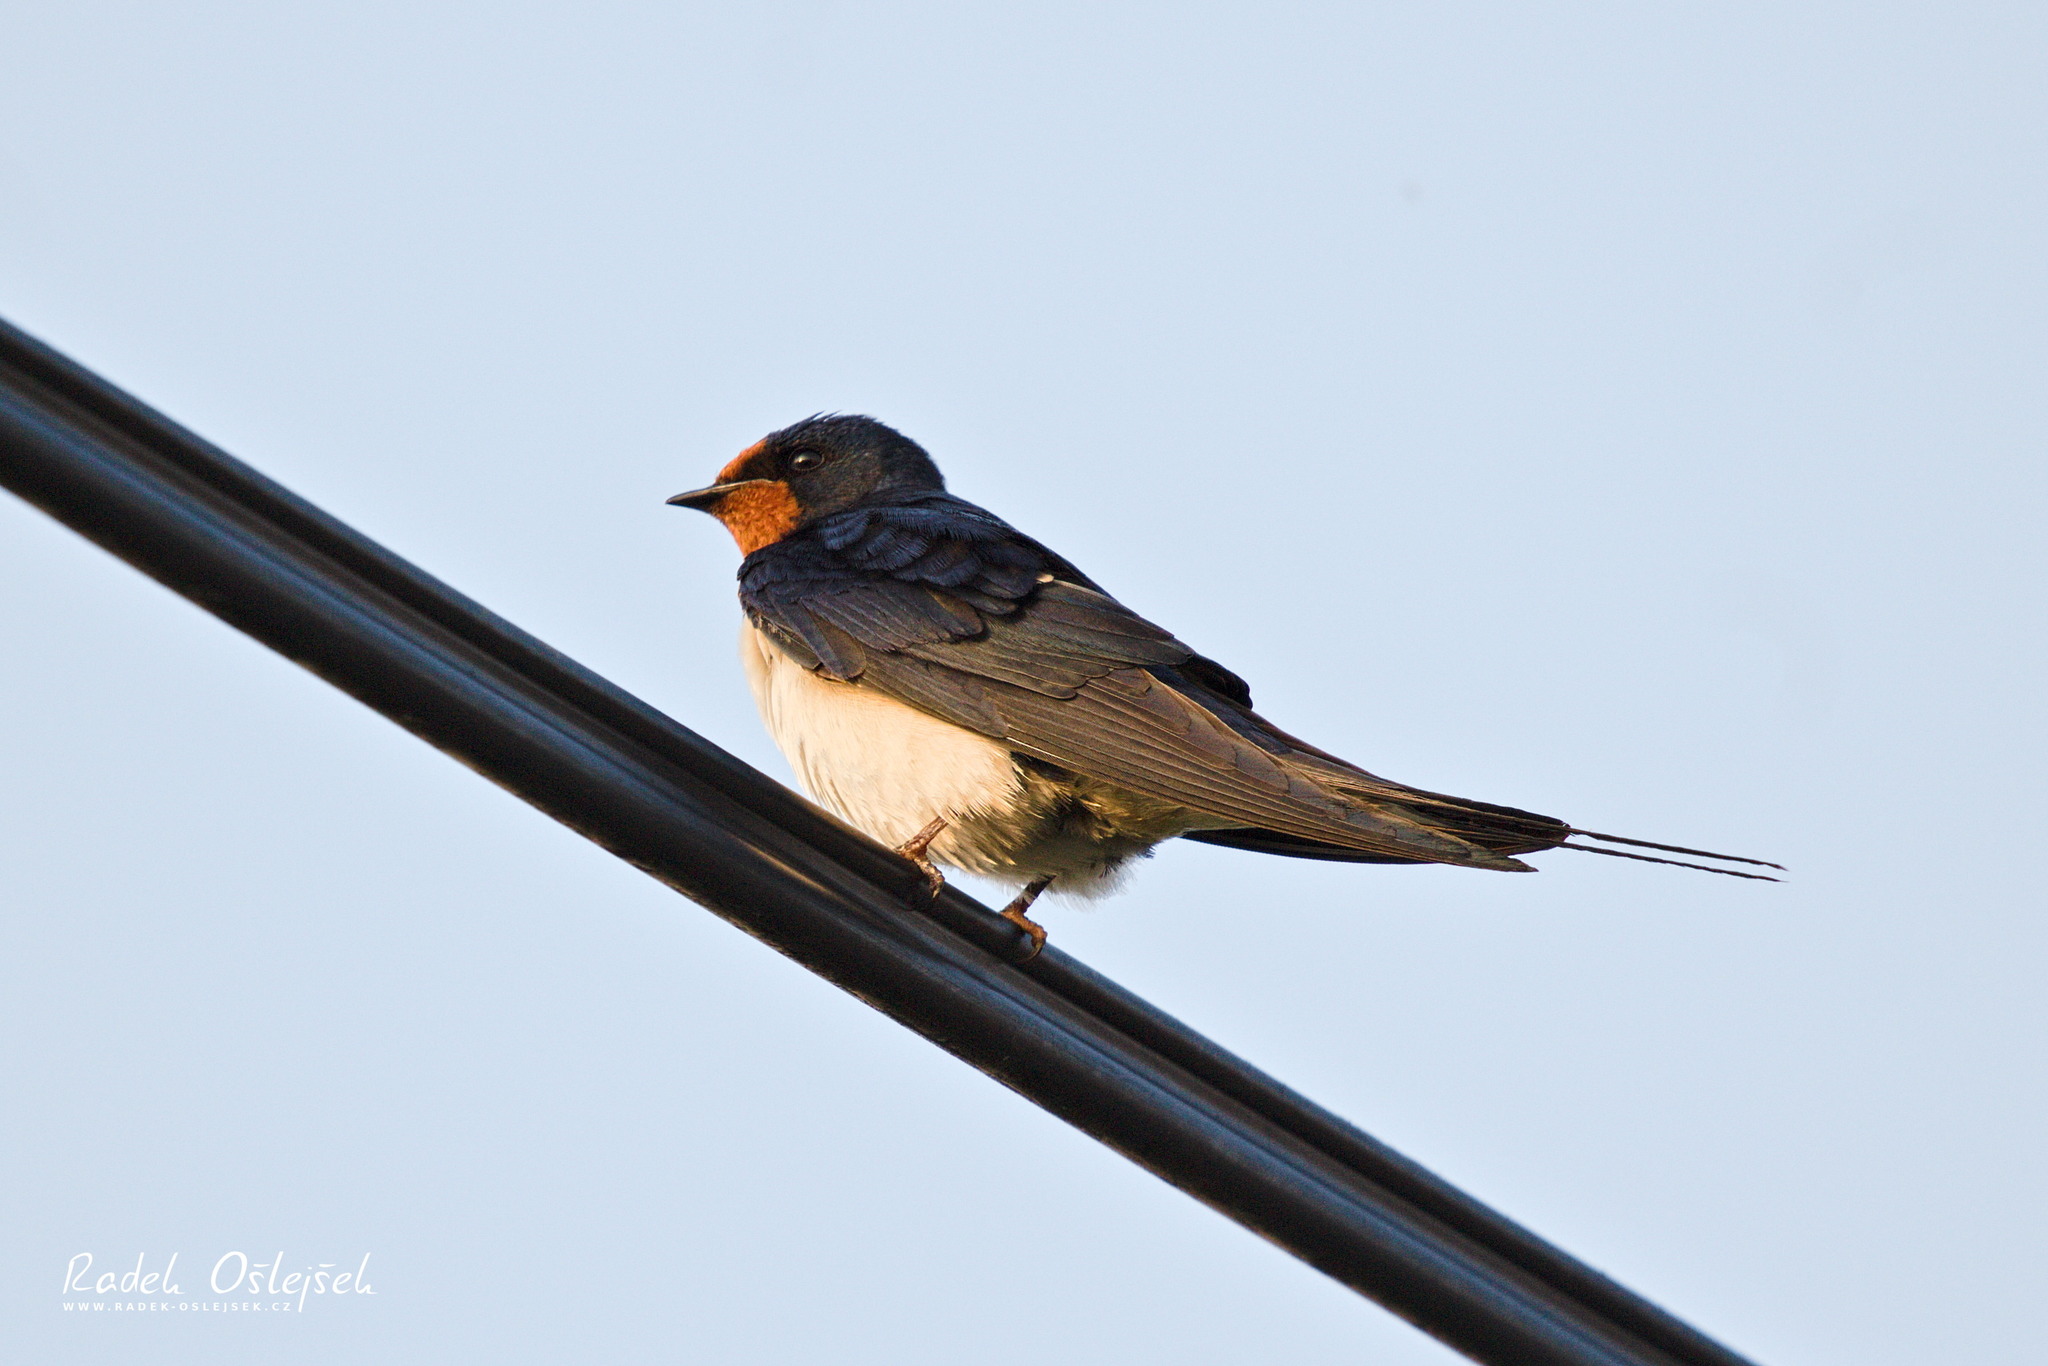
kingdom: Animalia
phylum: Chordata
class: Aves
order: Passeriformes
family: Hirundinidae
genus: Hirundo
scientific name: Hirundo rustica
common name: Barn swallow
